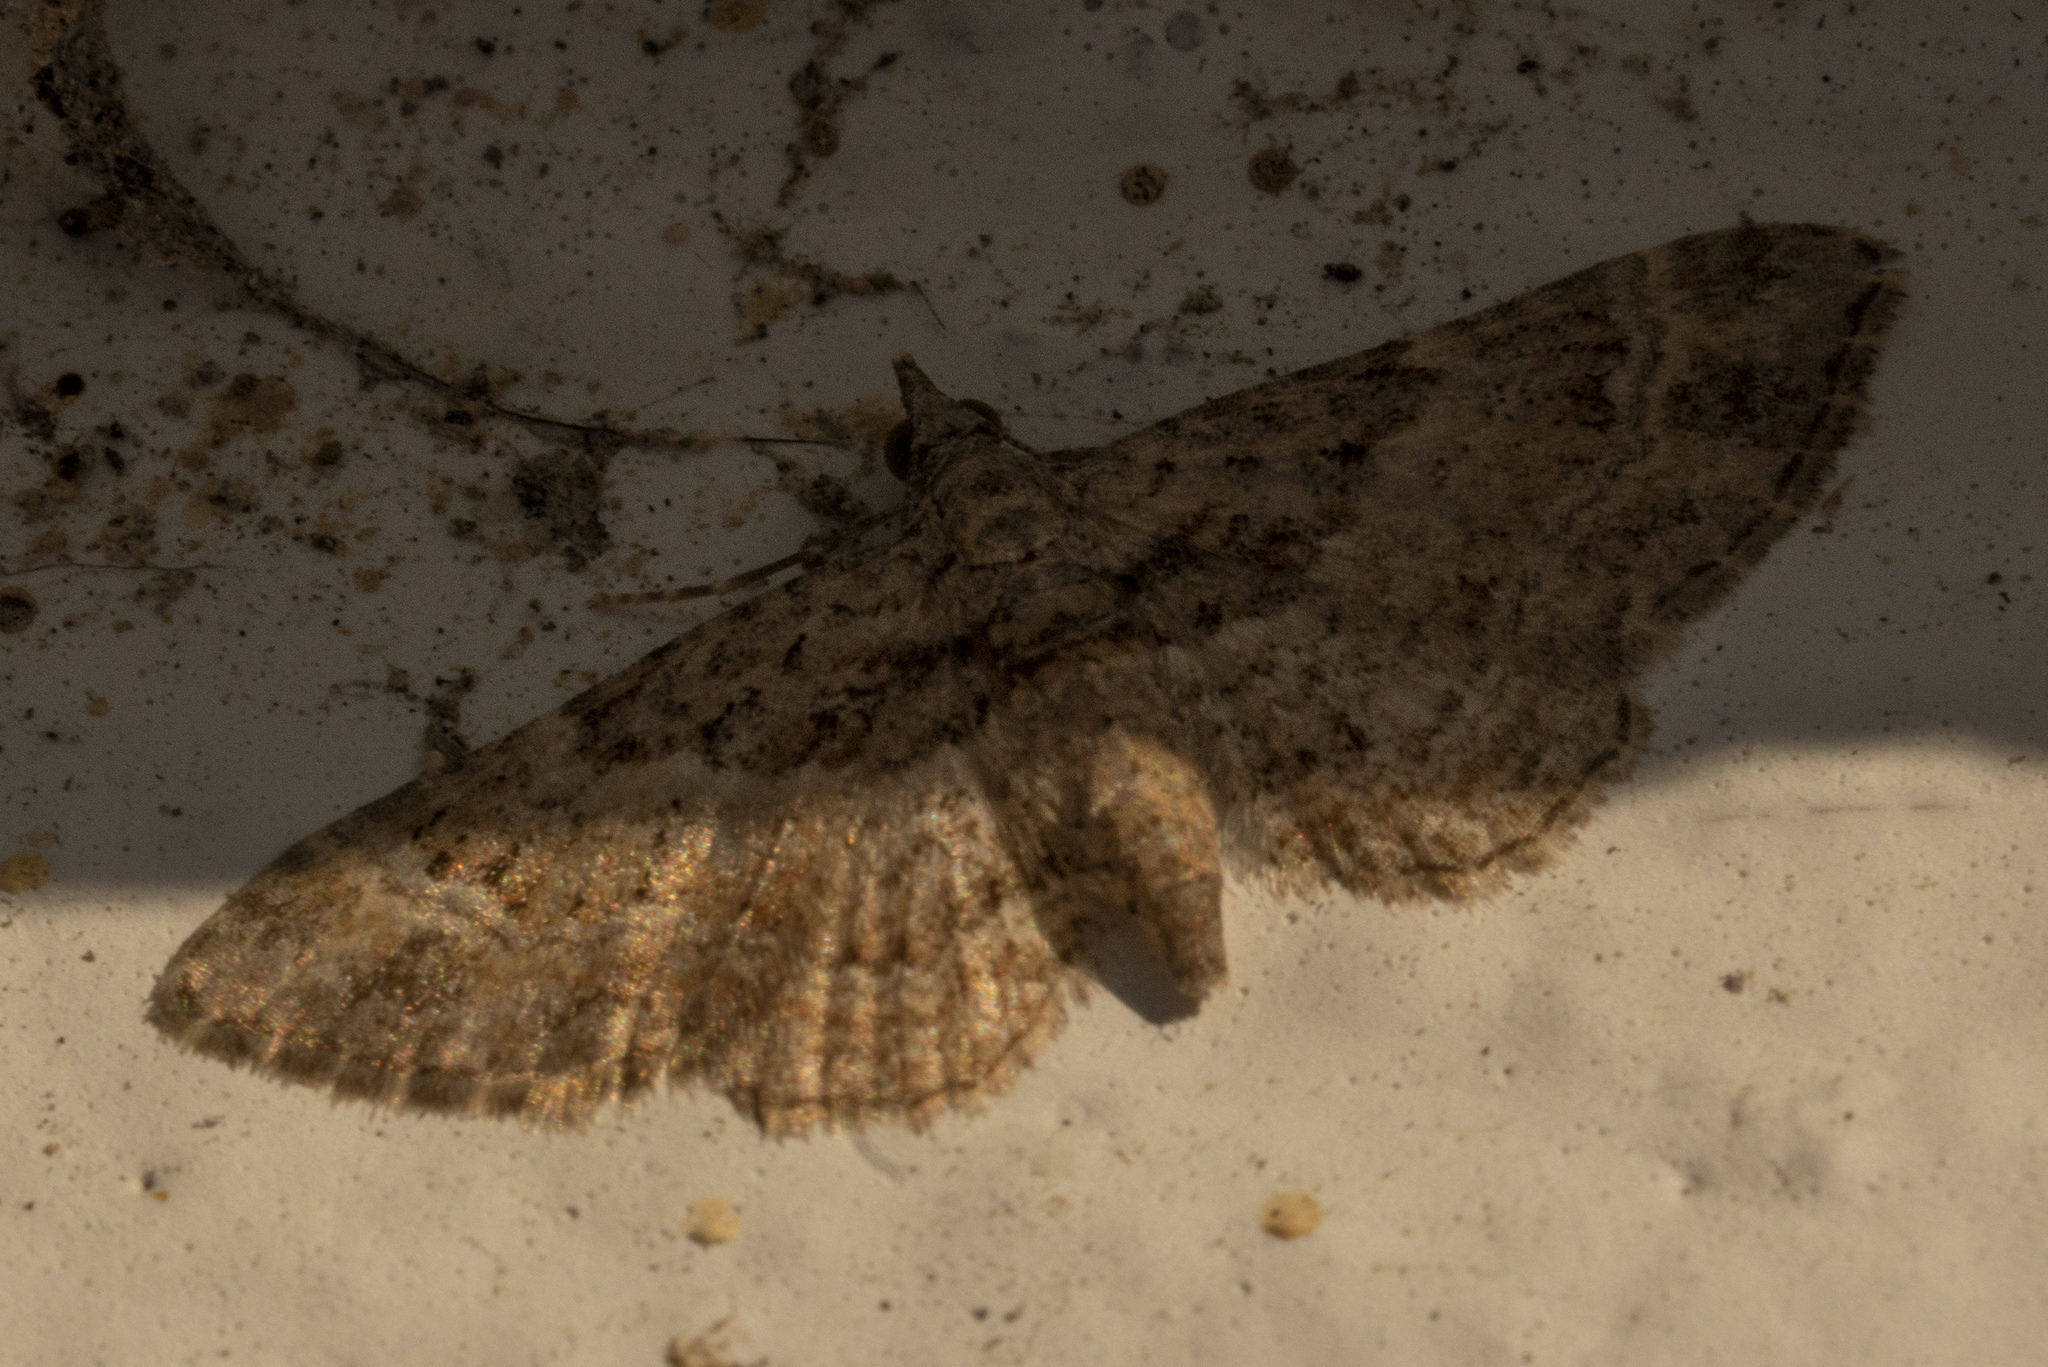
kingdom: Animalia
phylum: Arthropoda
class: Insecta
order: Lepidoptera
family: Geometridae
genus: Gymnoscelis
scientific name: Gymnoscelis rufifasciata
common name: Double-striped pug
